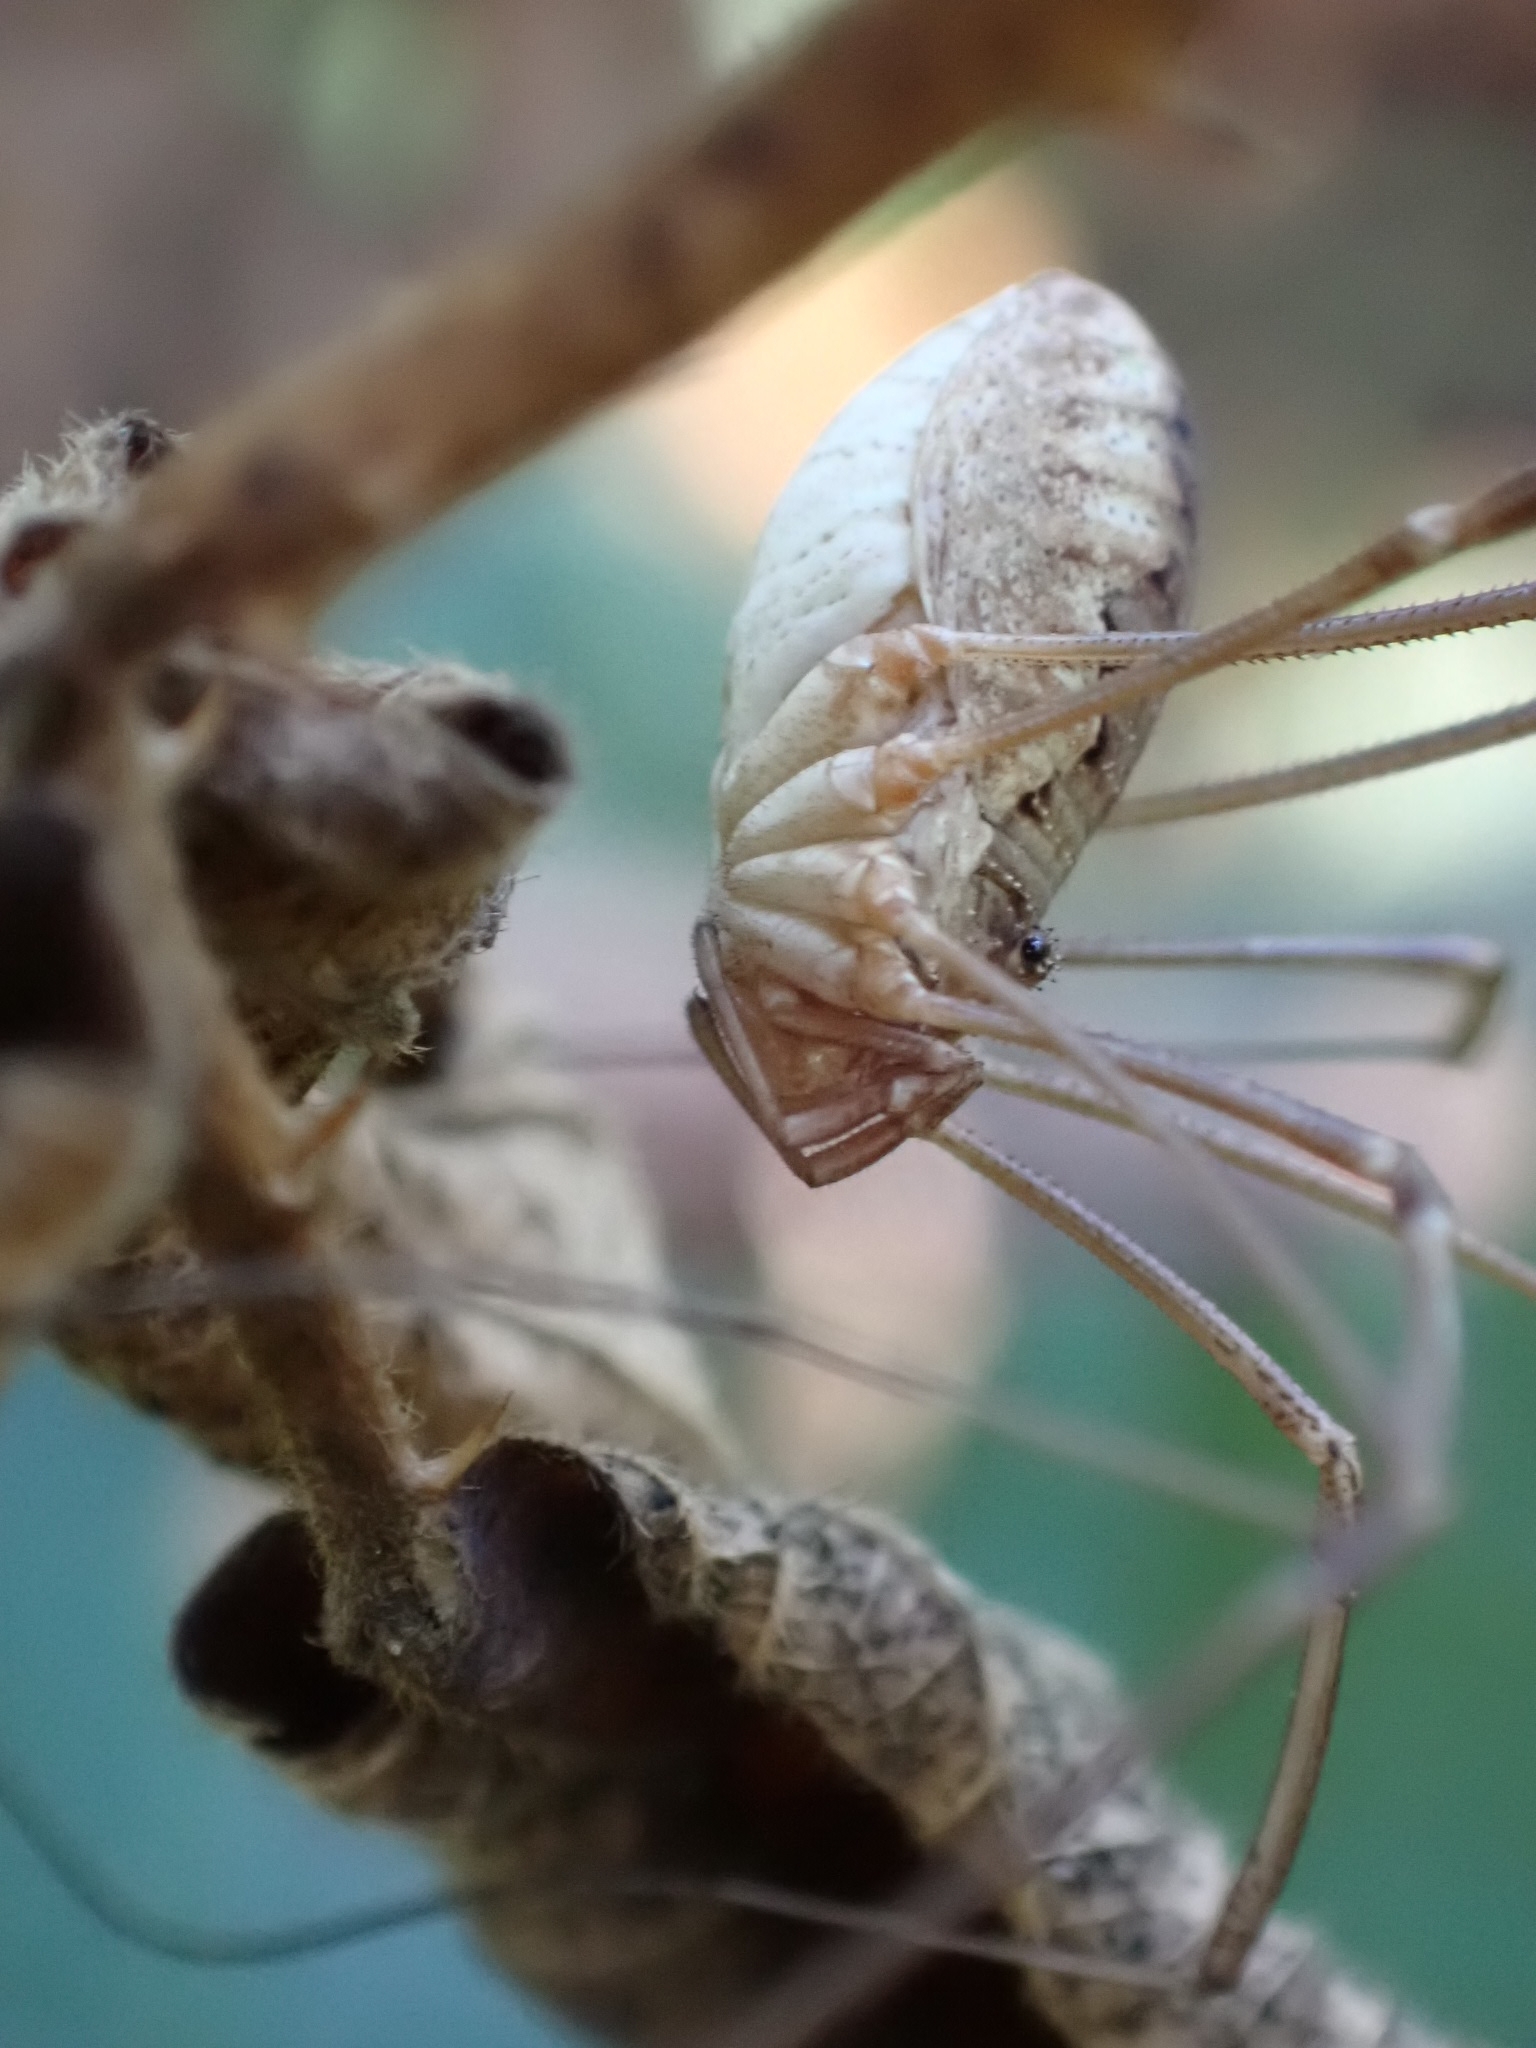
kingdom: Animalia
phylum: Arthropoda
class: Arachnida
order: Opiliones
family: Phalangiidae
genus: Phalangium
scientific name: Phalangium opilio
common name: Daddy longleg
